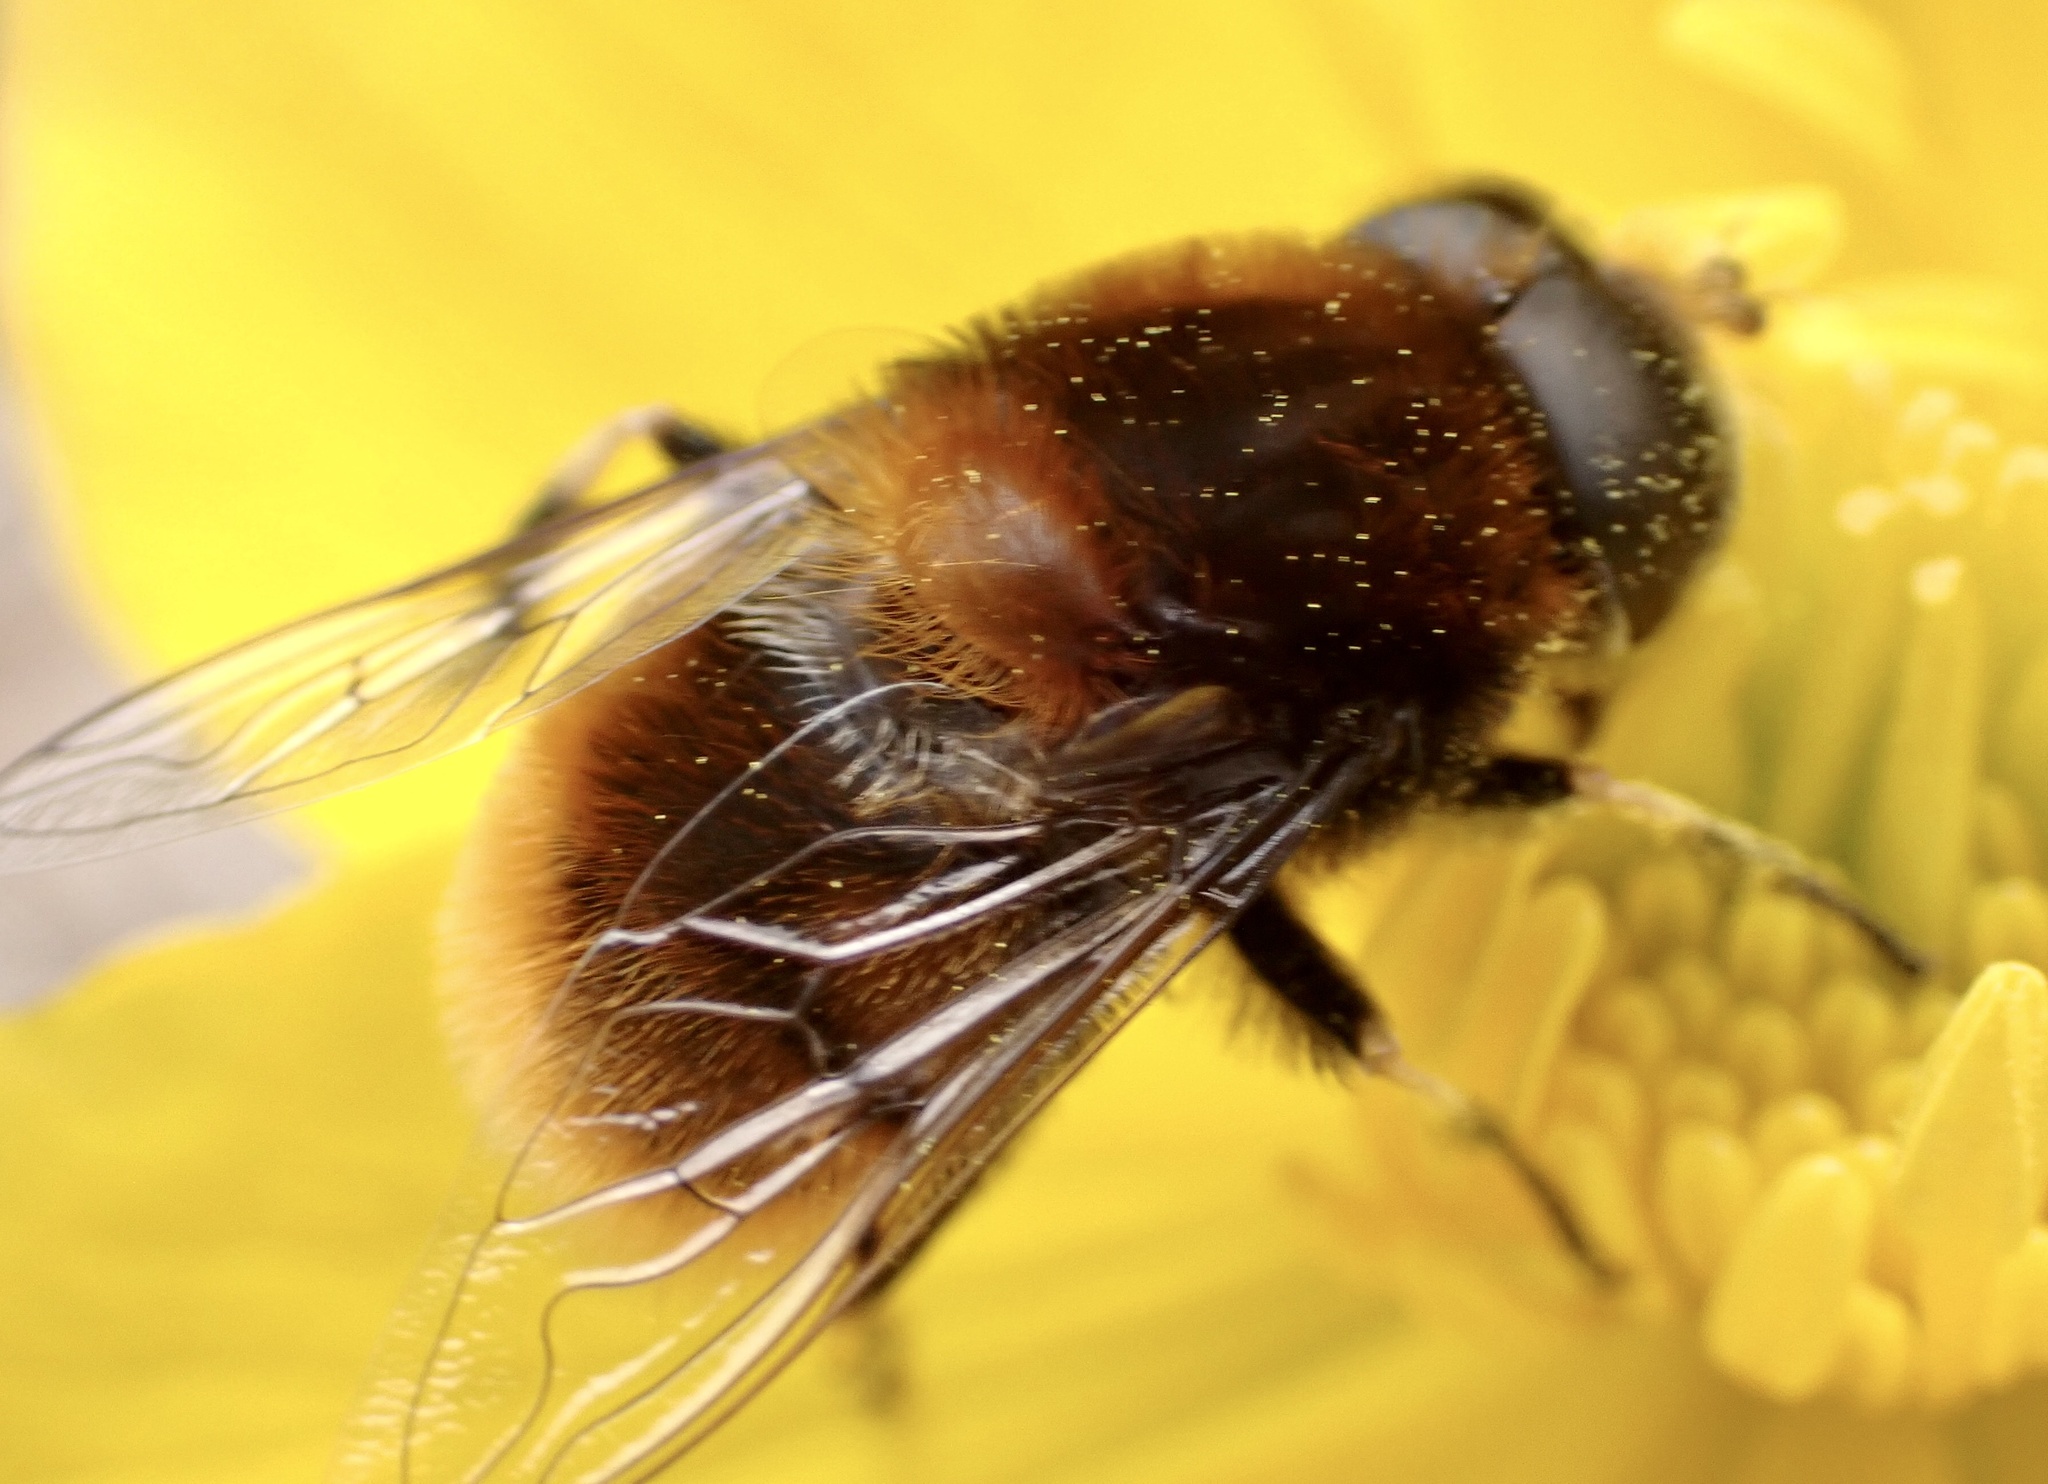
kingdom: Animalia
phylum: Arthropoda
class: Insecta
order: Diptera
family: Syrphidae
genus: Eristalis
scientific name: Eristalis intricaria
